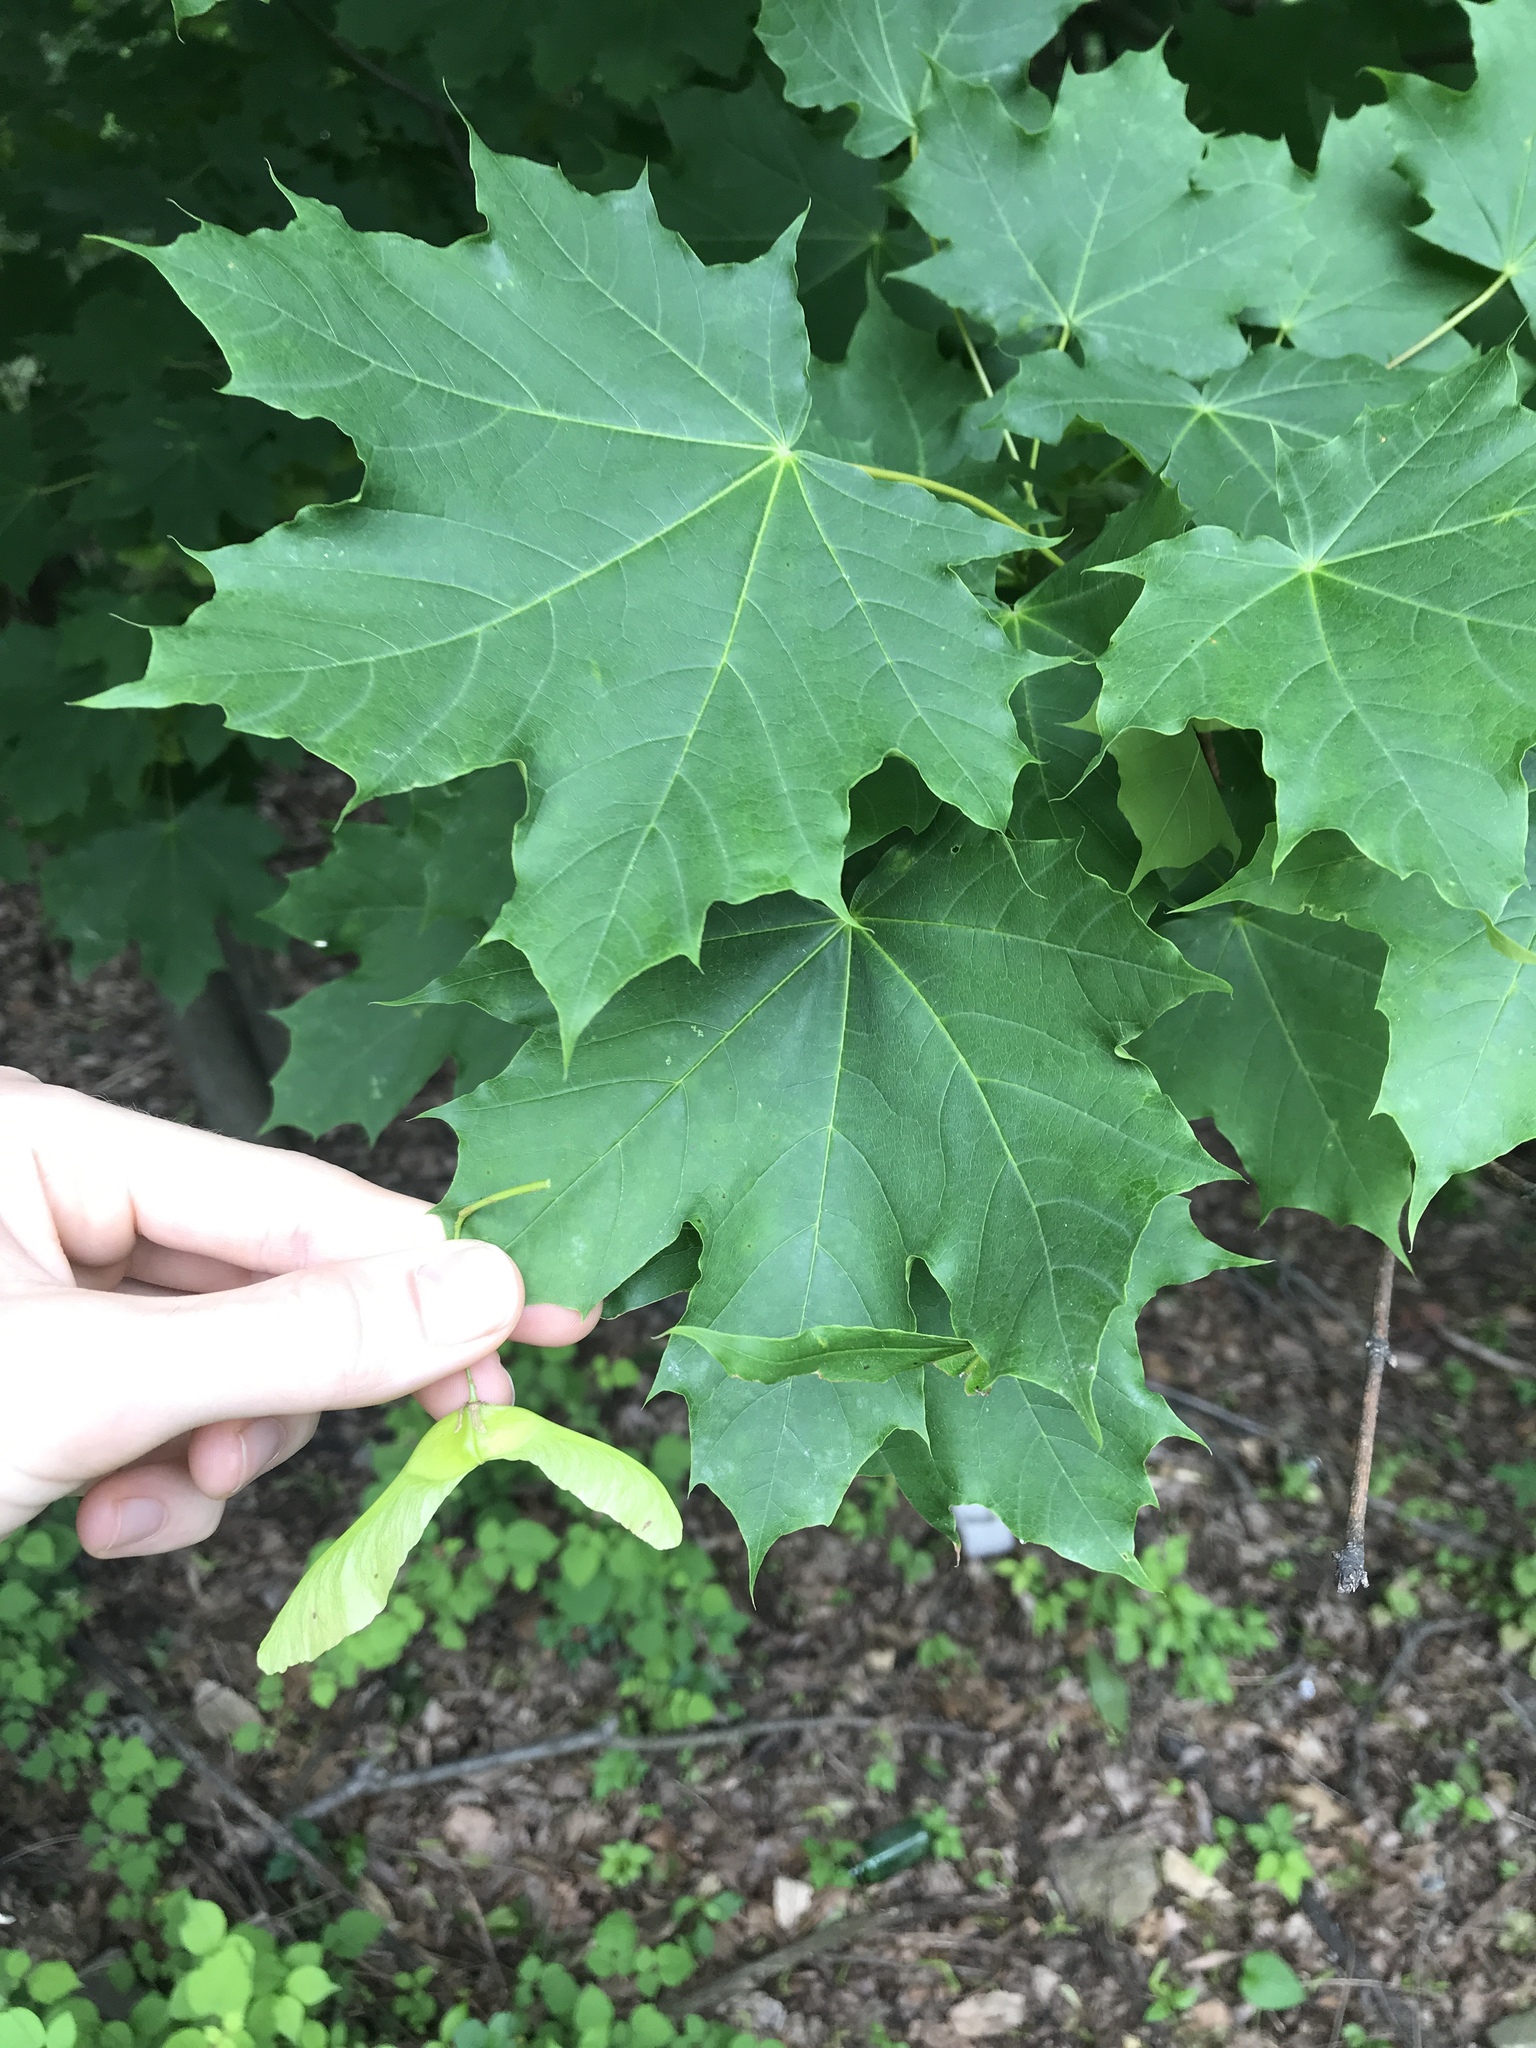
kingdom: Plantae
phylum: Tracheophyta
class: Magnoliopsida
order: Sapindales
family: Sapindaceae
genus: Acer
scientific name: Acer platanoides
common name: Norway maple
